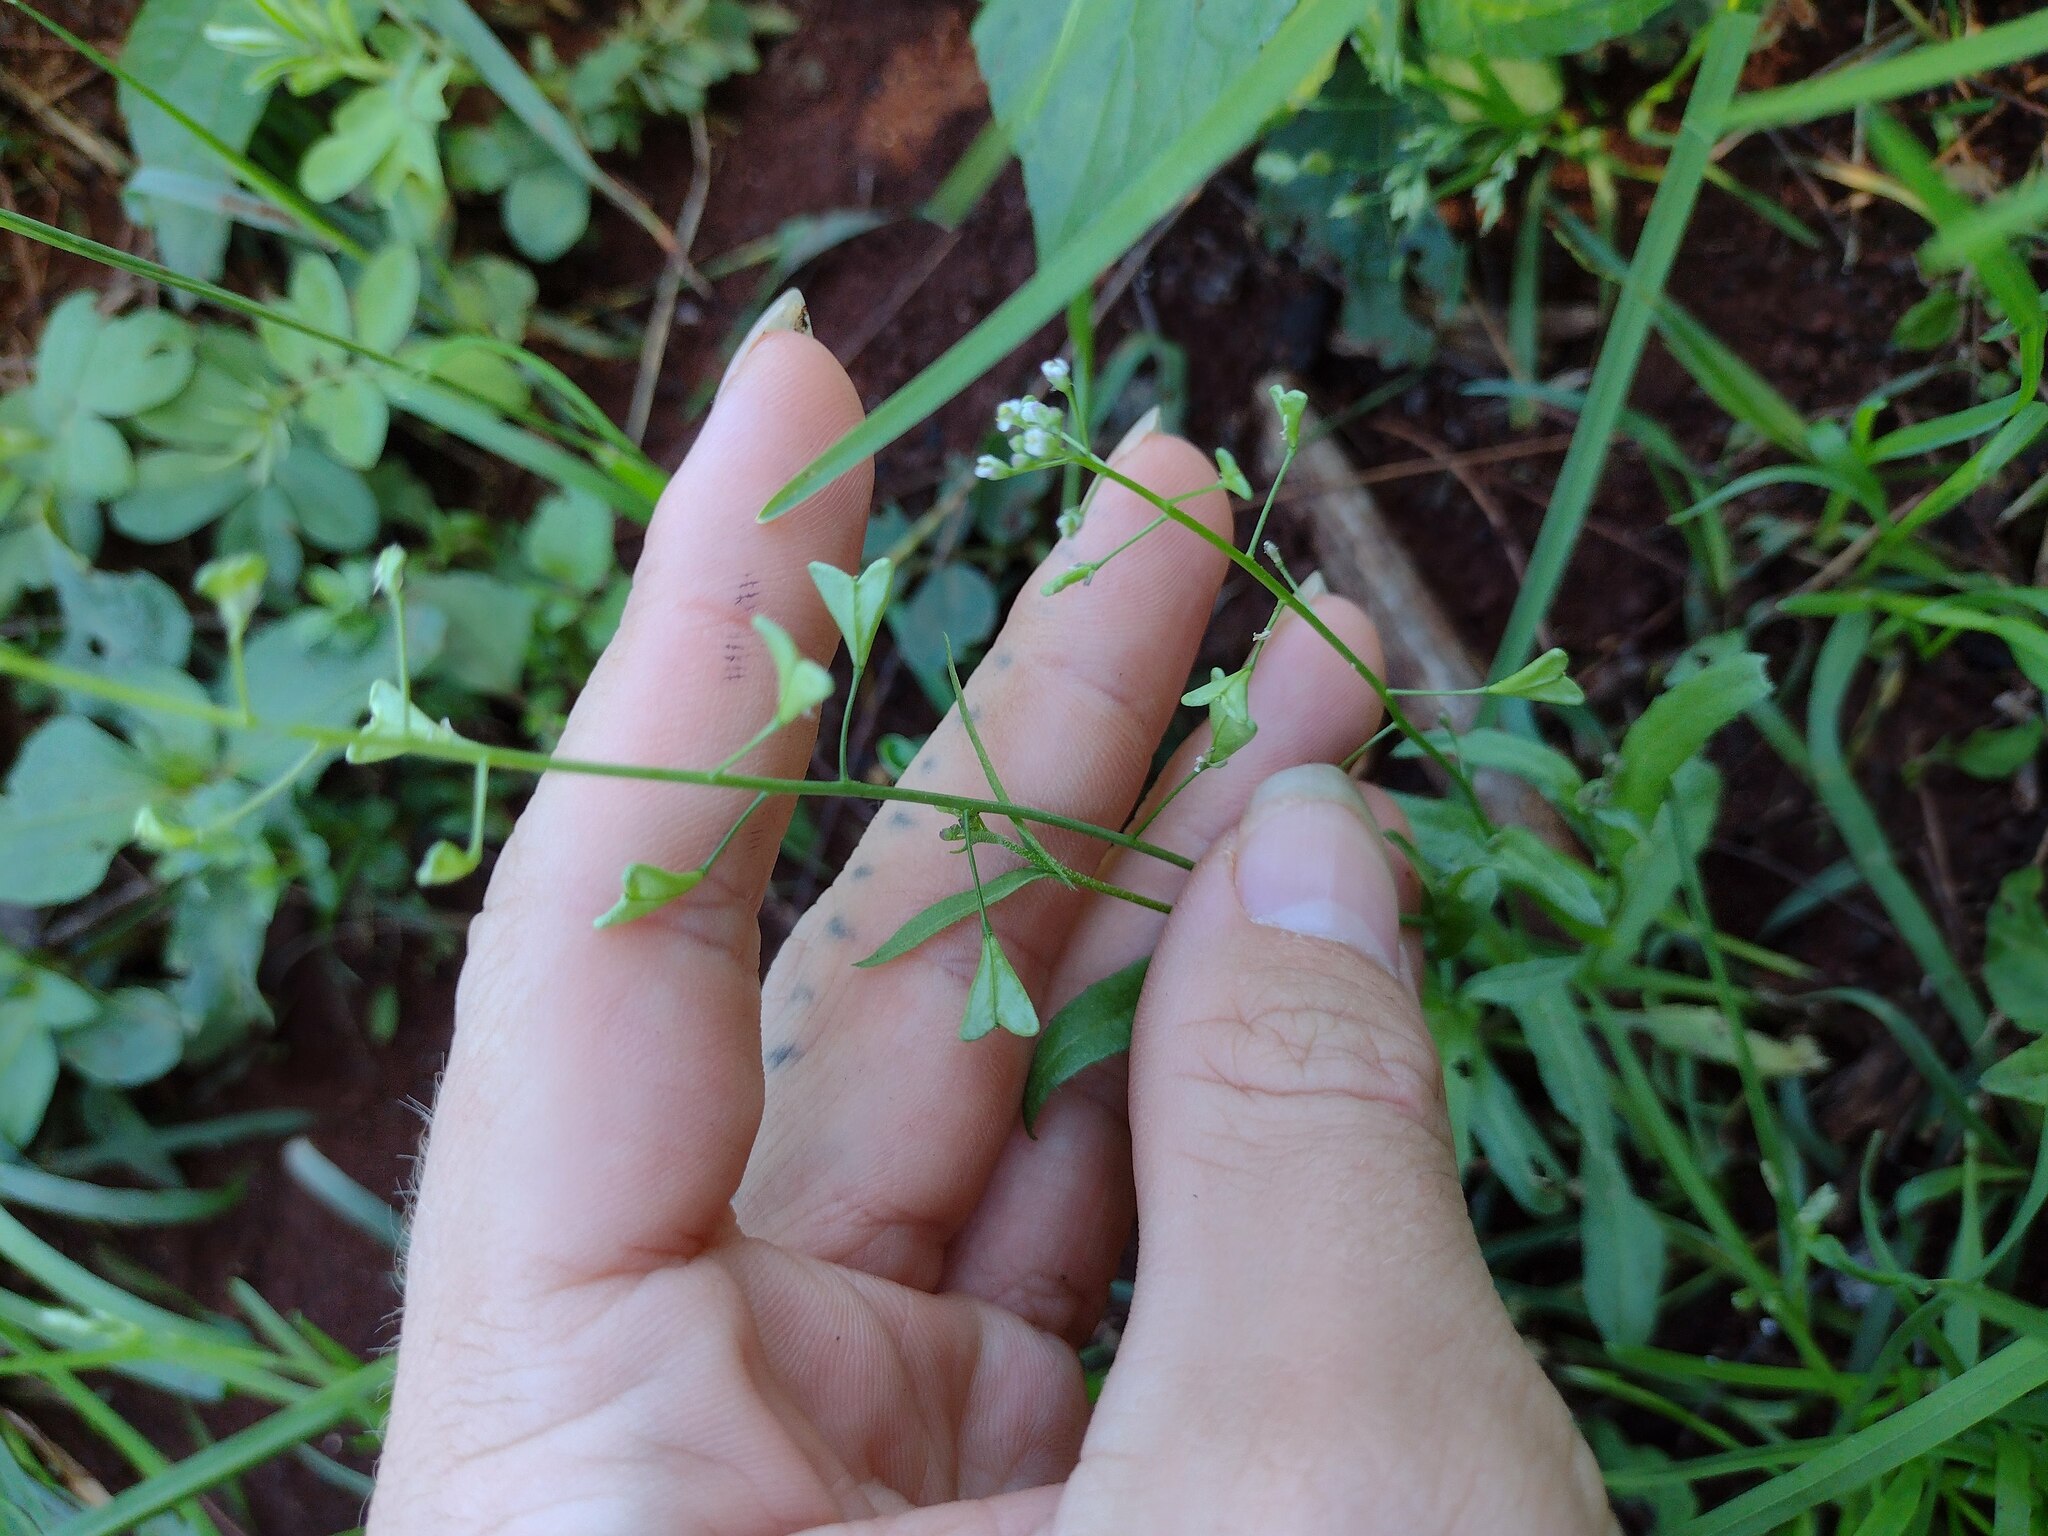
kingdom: Plantae
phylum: Tracheophyta
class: Magnoliopsida
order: Brassicales
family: Brassicaceae
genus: Capsella
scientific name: Capsella bursa-pastoris
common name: Shepherd's purse
